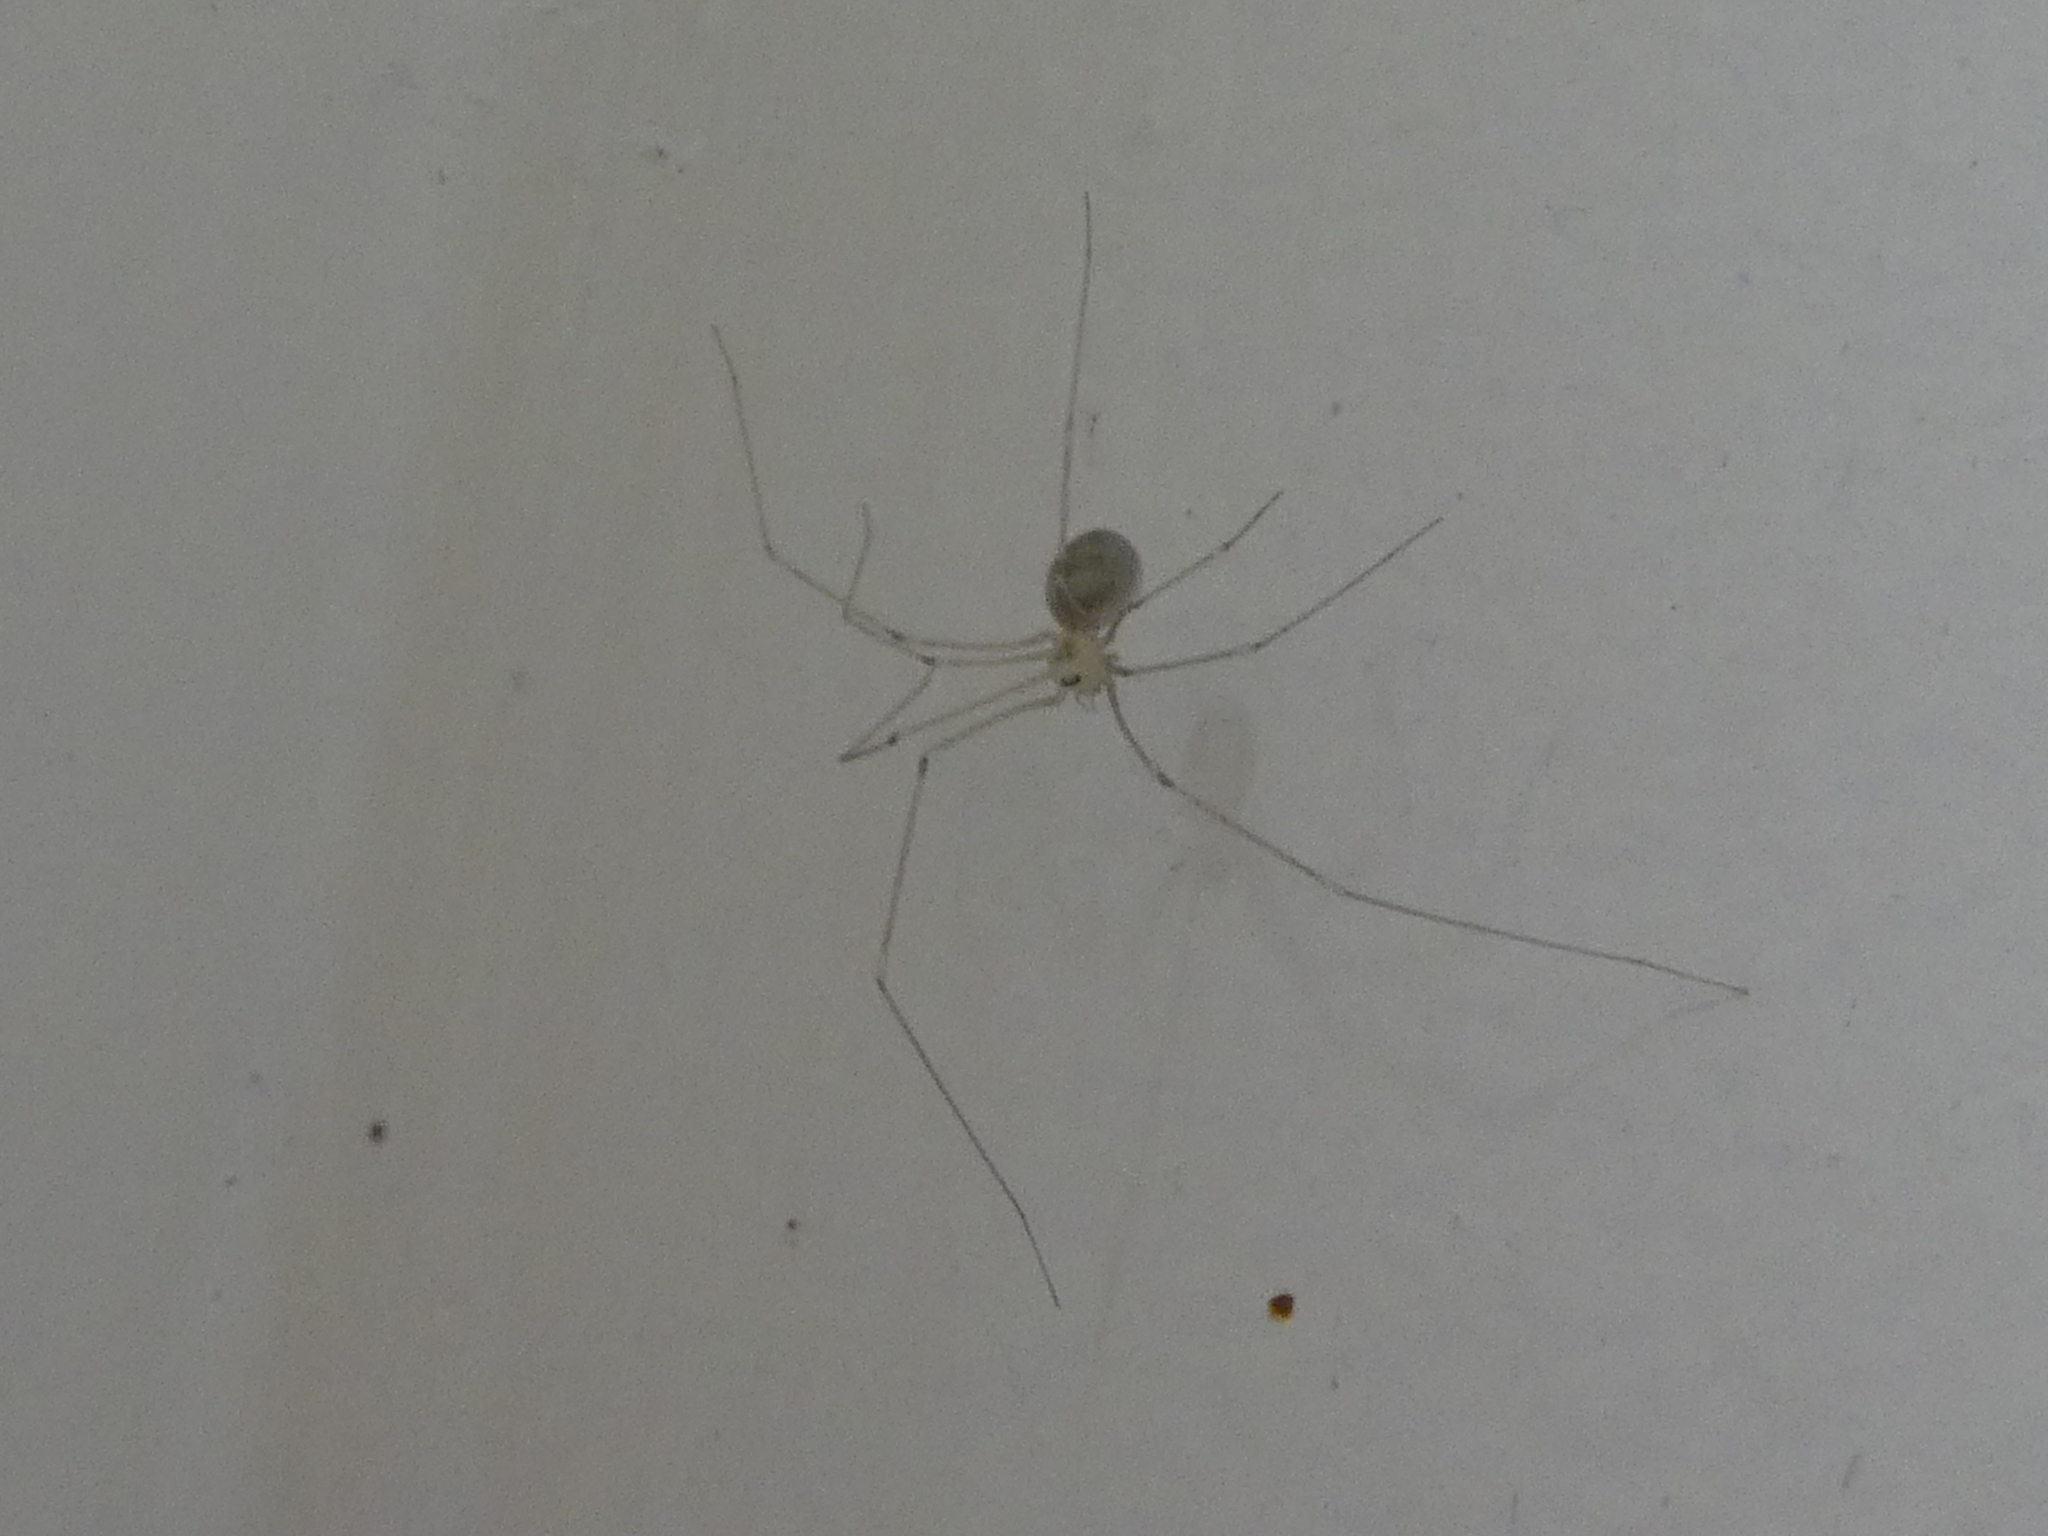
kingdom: Animalia
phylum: Arthropoda
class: Arachnida
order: Araneae
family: Pholcidae
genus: Pholcus
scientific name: Pholcus phalangioides
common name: Longbodied cellar spider
